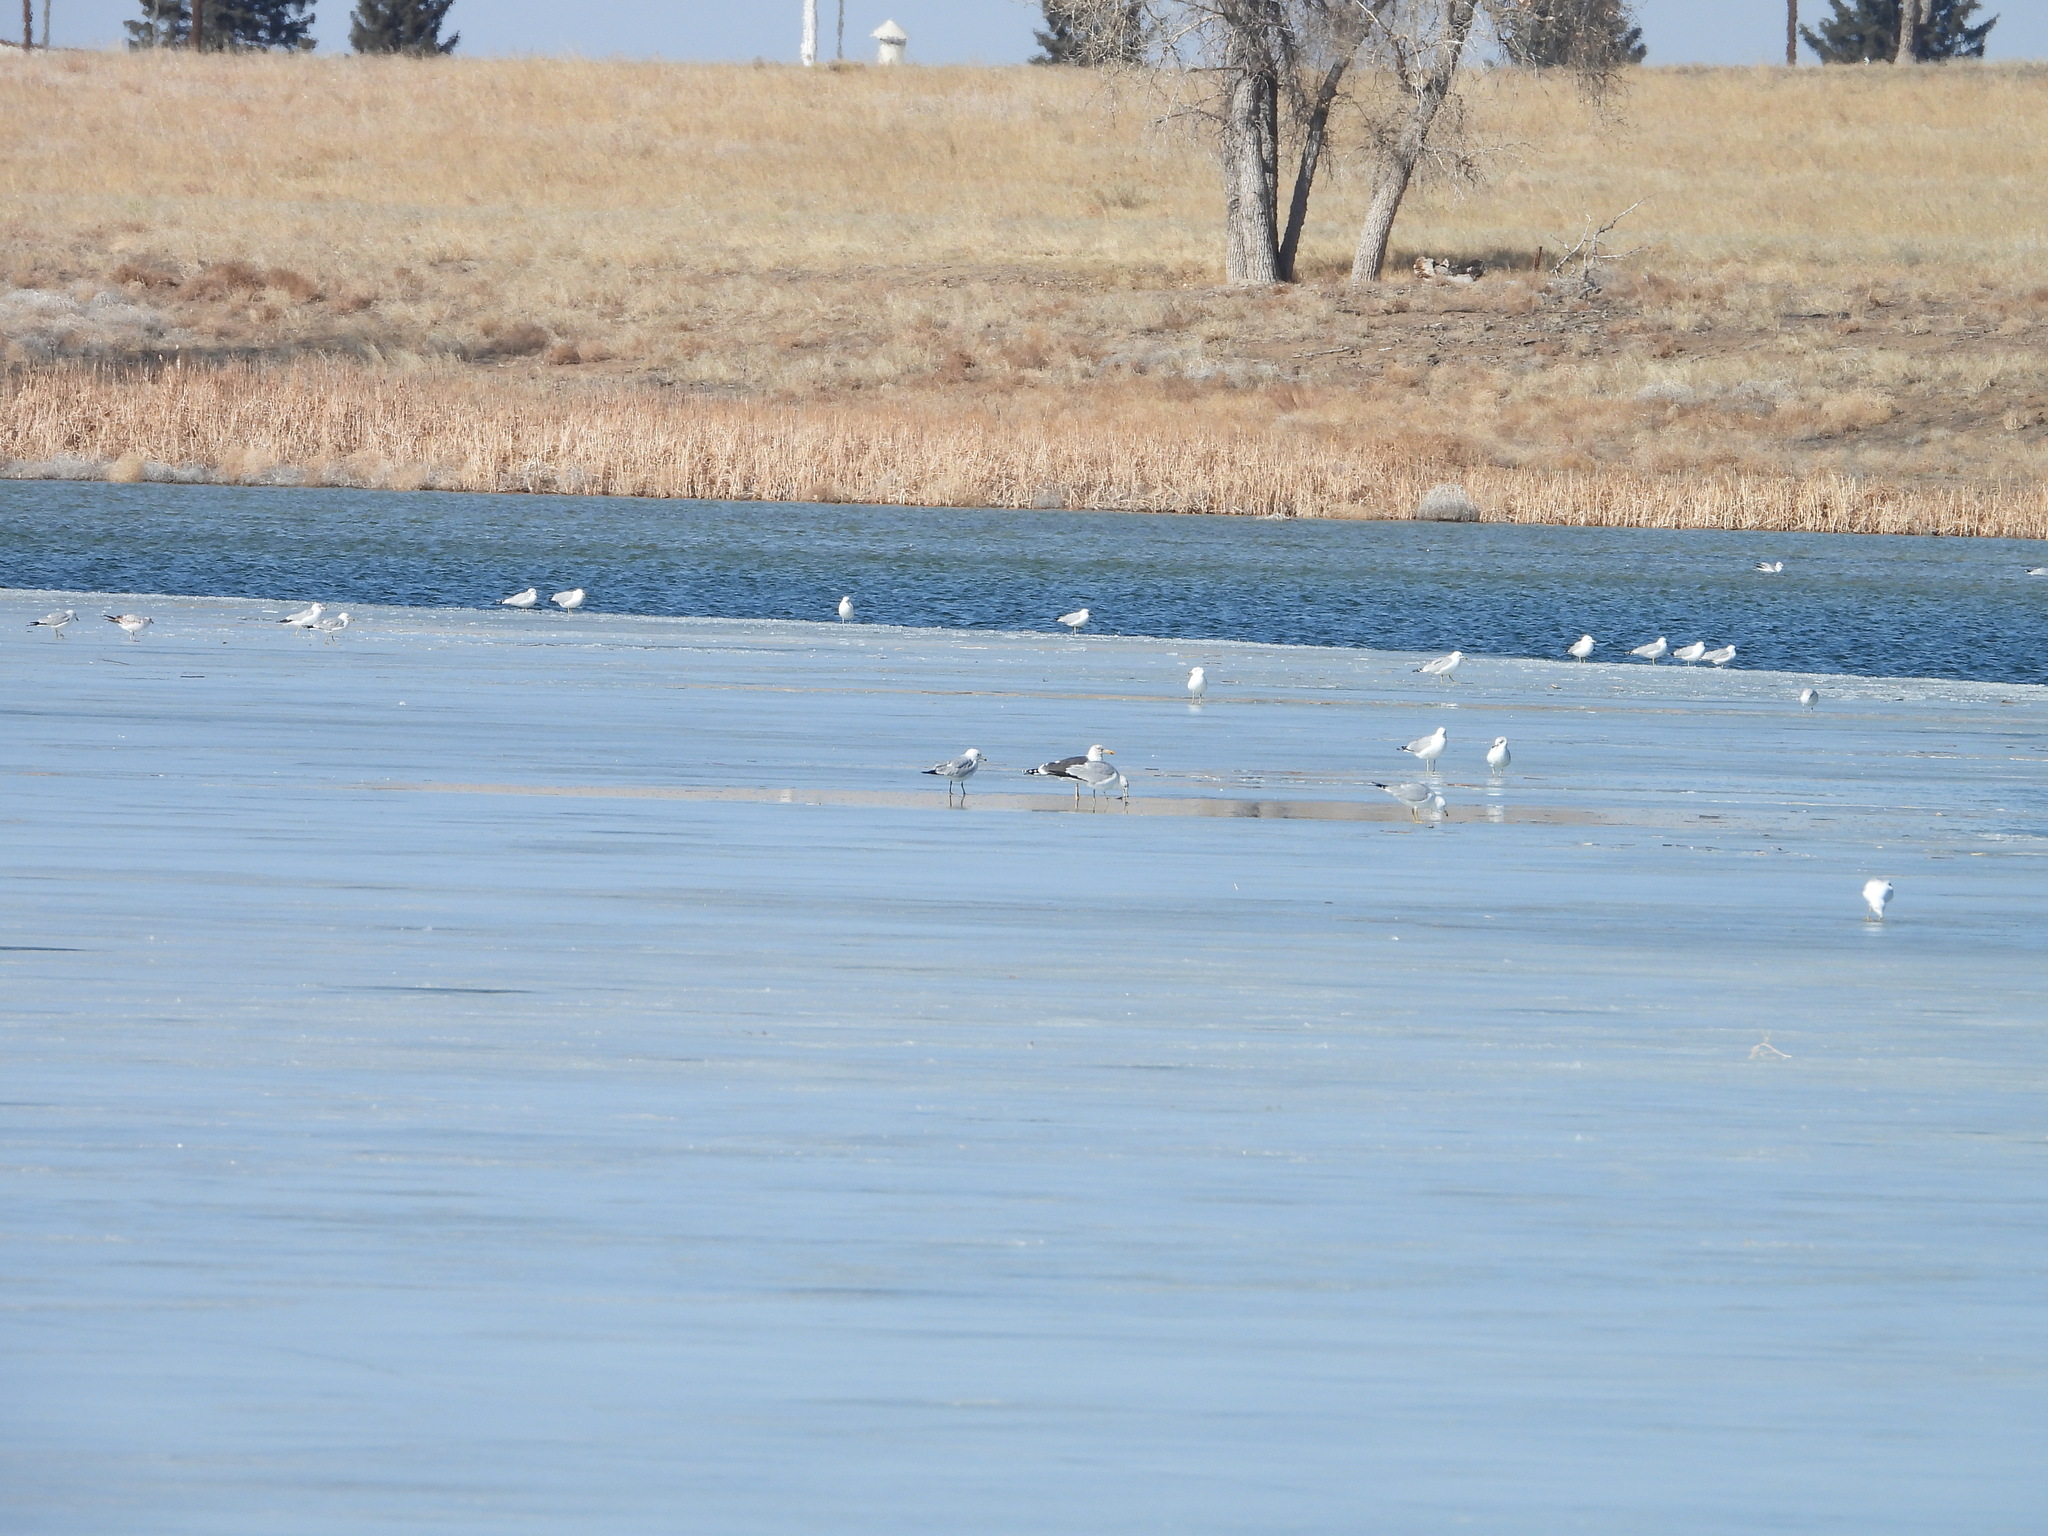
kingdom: Animalia
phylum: Chordata
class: Aves
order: Charadriiformes
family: Laridae
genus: Larus
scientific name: Larus delawarensis
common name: Ring-billed gull
